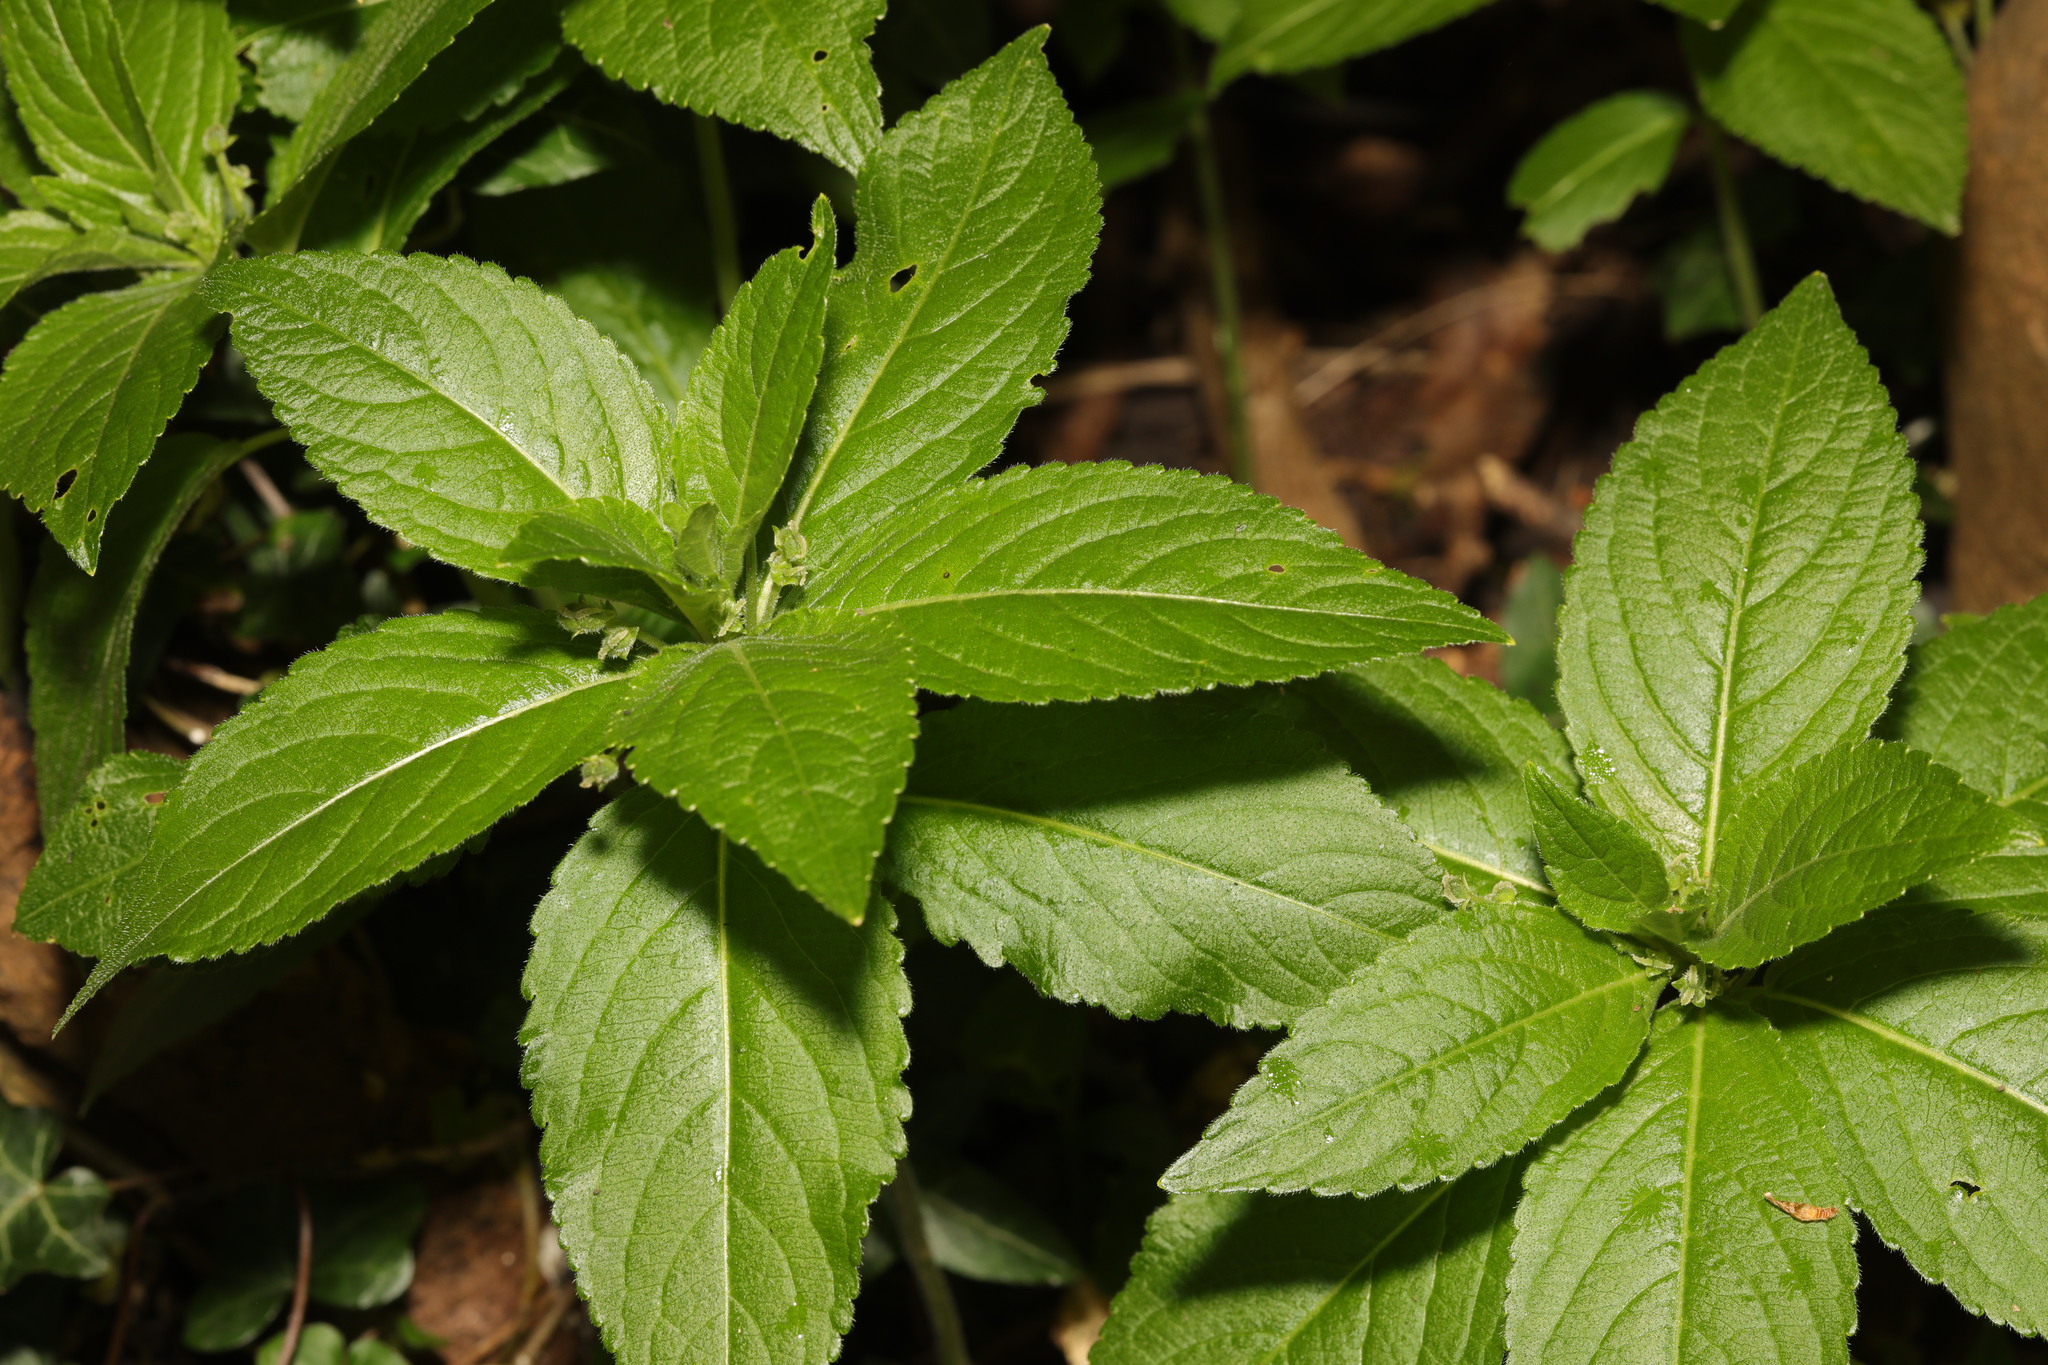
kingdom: Plantae
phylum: Tracheophyta
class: Magnoliopsida
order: Malpighiales
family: Euphorbiaceae
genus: Mercurialis
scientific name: Mercurialis perennis
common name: Dog mercury
